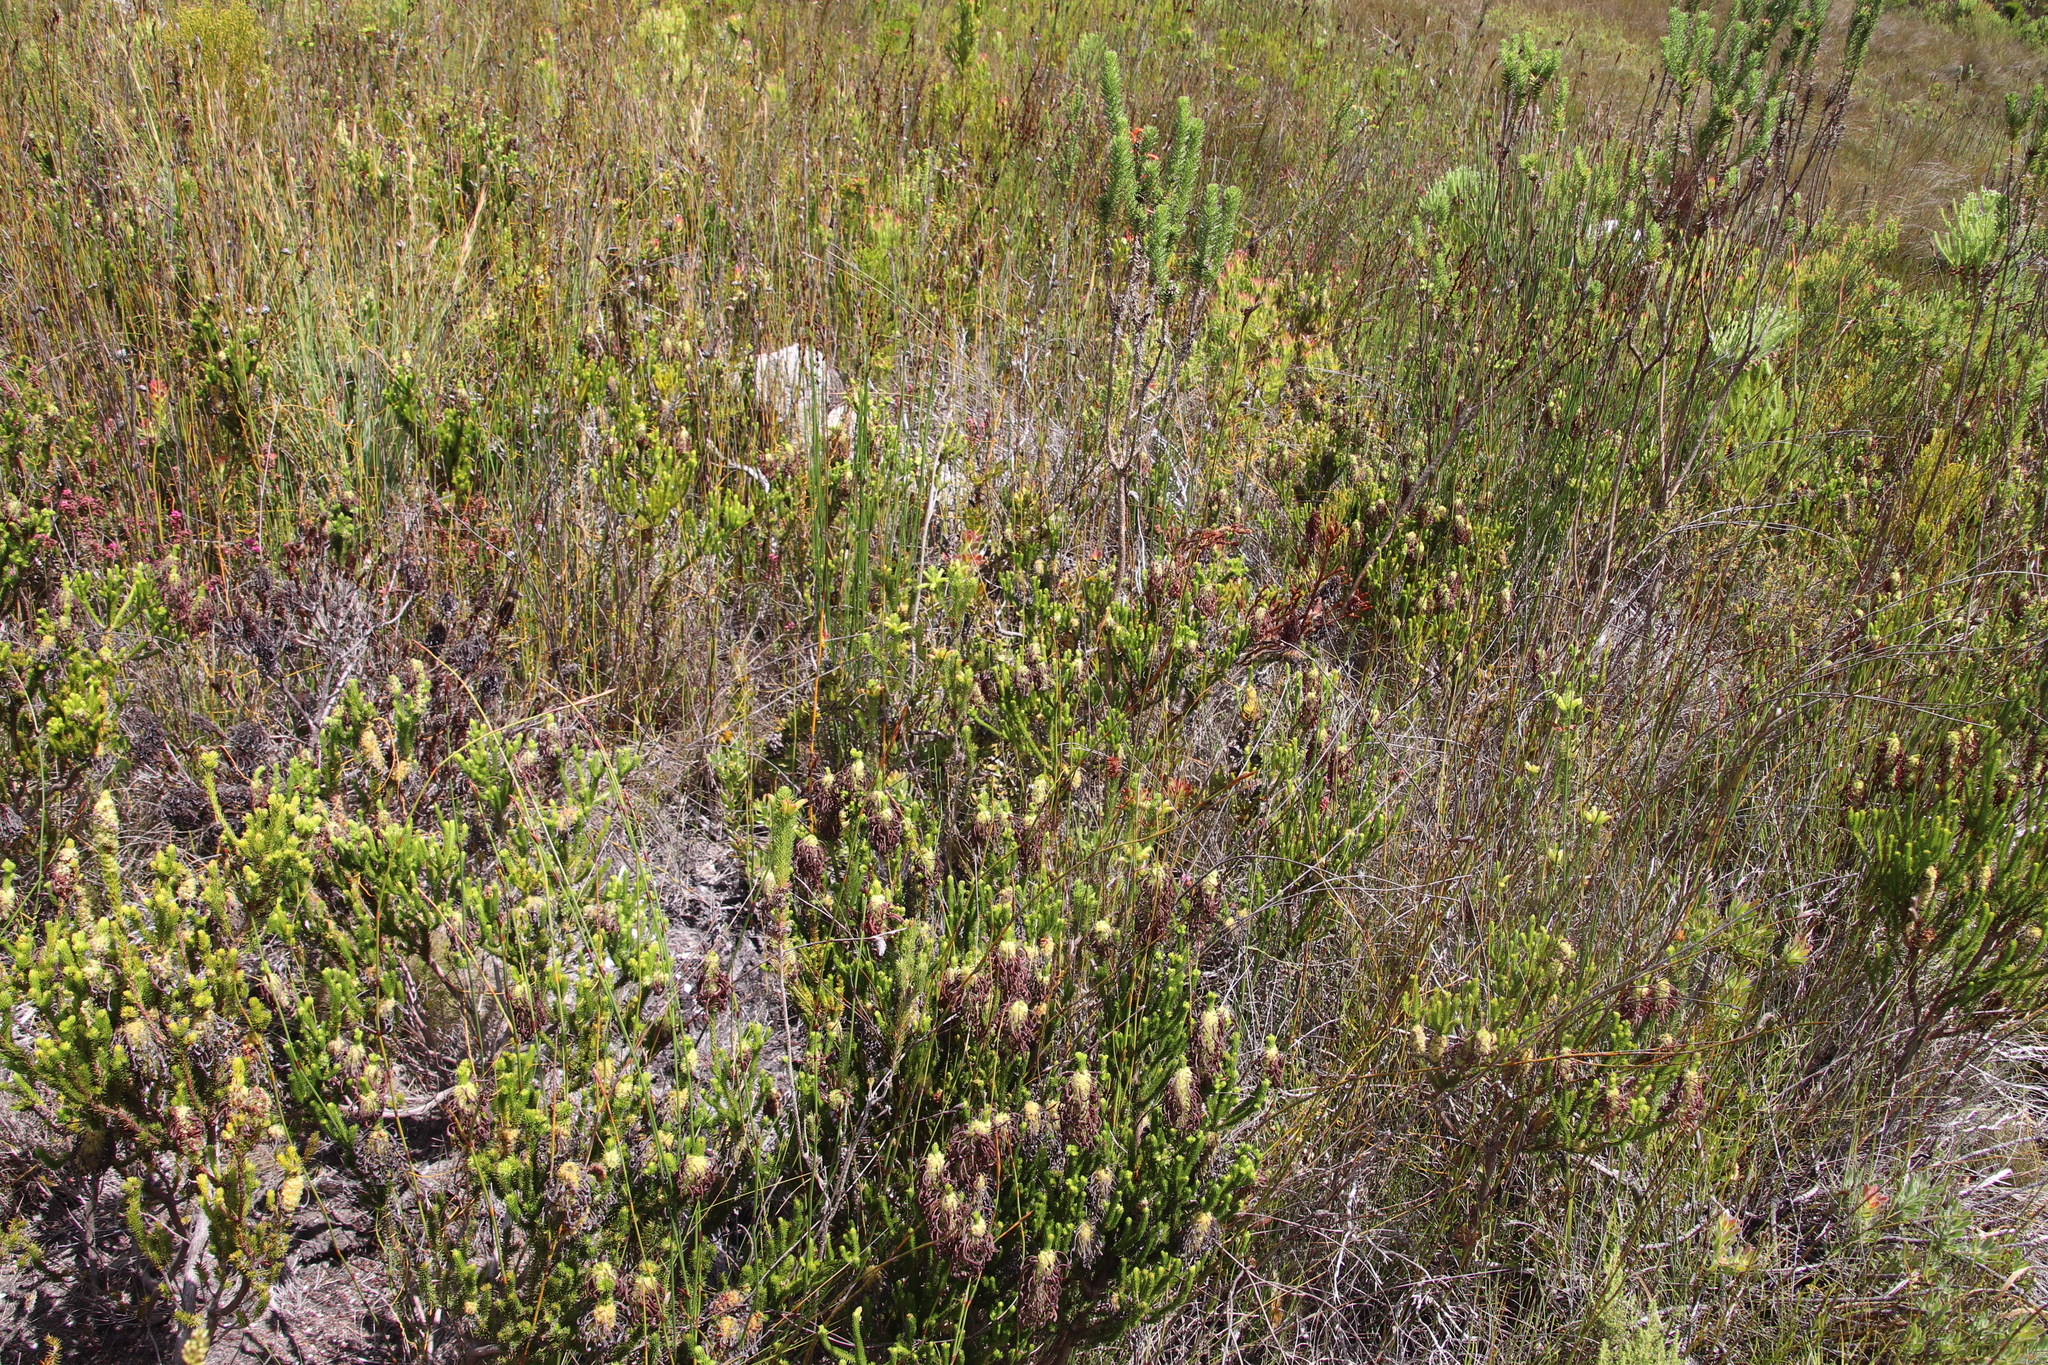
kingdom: Plantae
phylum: Tracheophyta
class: Magnoliopsida
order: Ericales
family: Ericaceae
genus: Erica
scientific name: Erica sessiliflora
